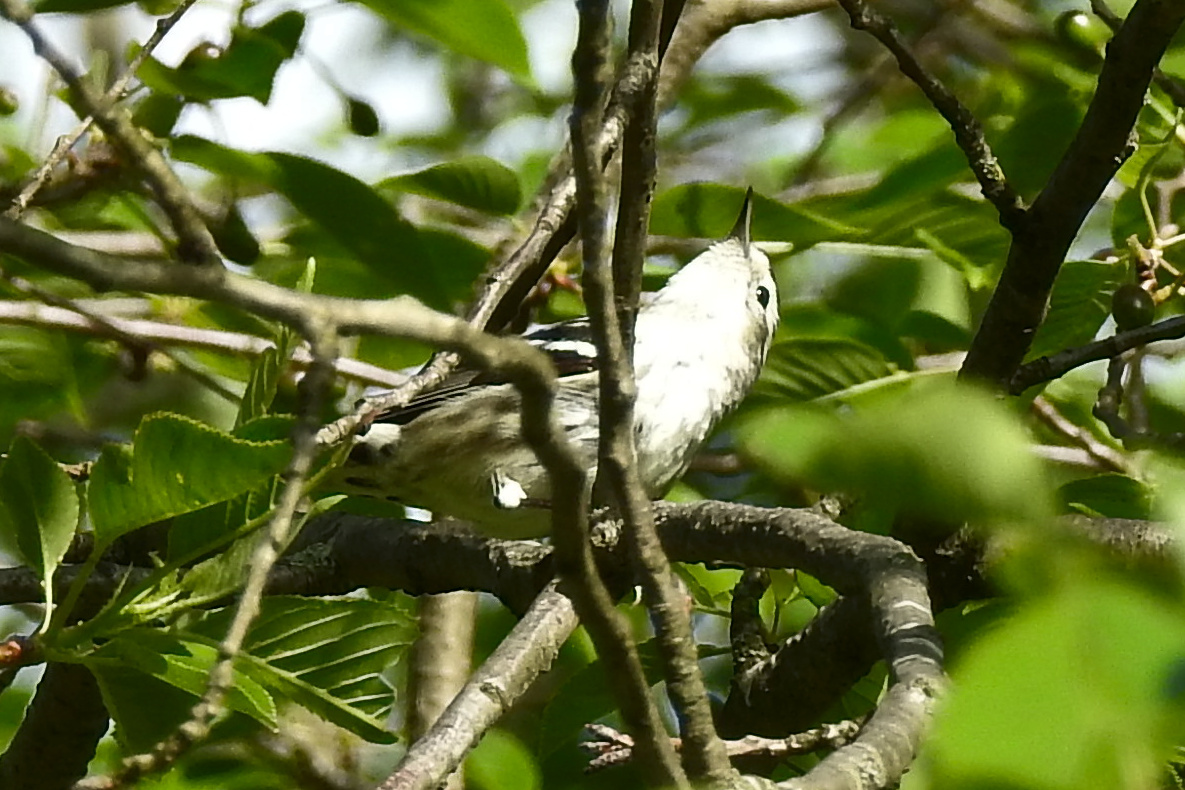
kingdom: Animalia
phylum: Chordata
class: Aves
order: Passeriformes
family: Parulidae
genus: Mniotilta
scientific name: Mniotilta varia
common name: Black-and-white warbler
